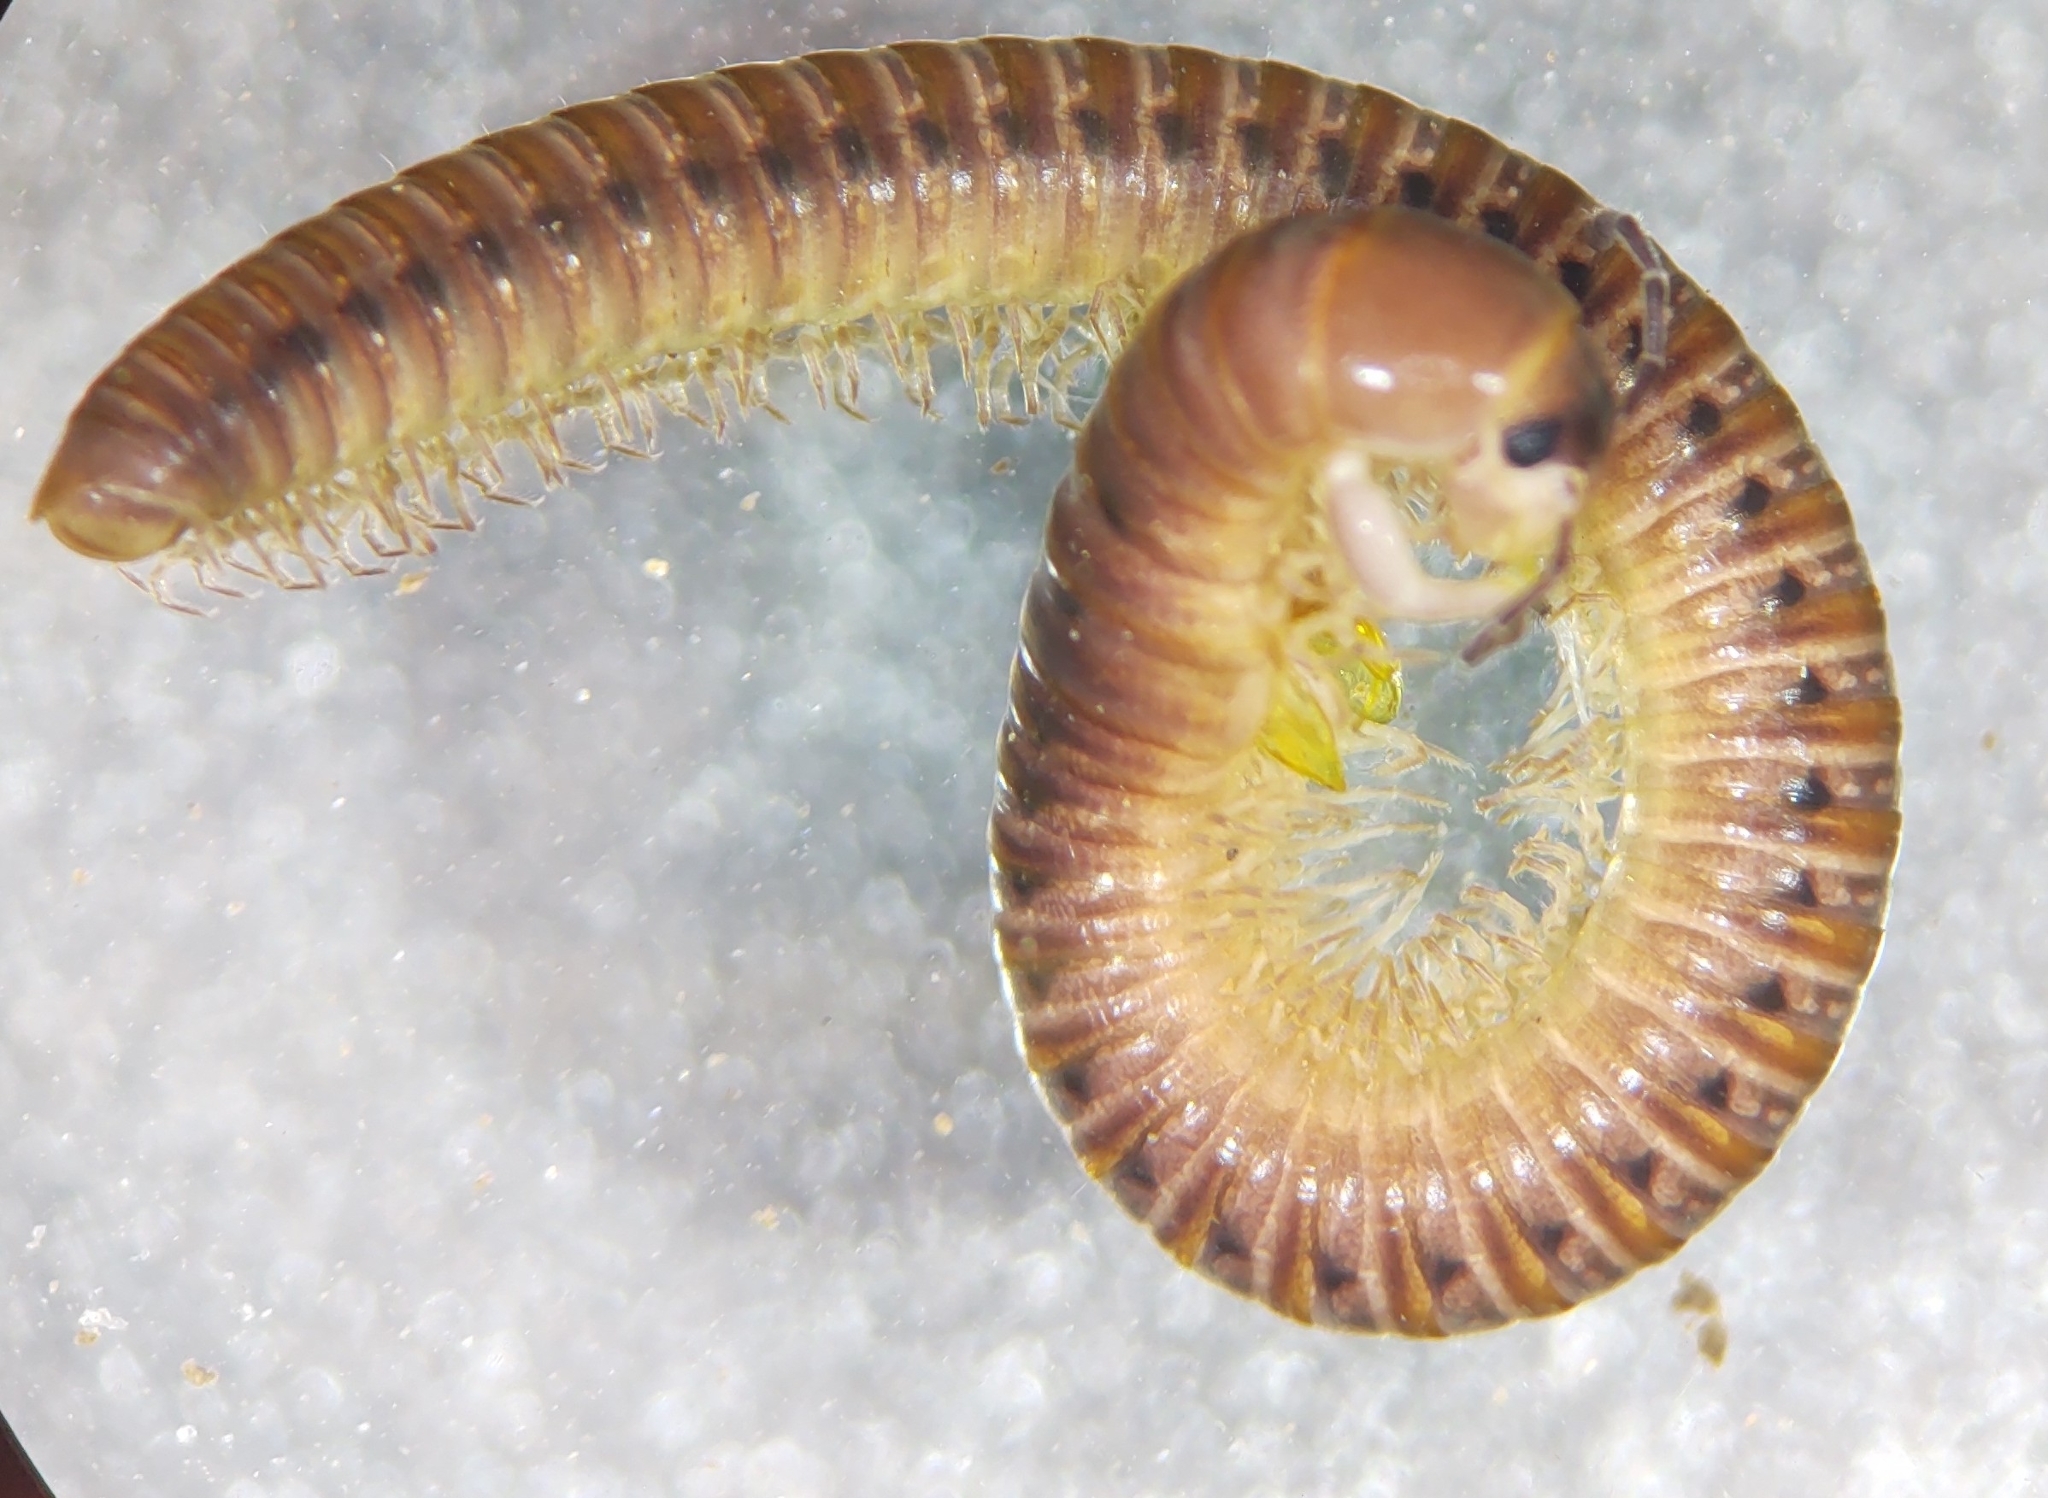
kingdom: Animalia
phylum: Arthropoda
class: Diplopoda
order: Julida
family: Parajulidae
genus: Oriulus
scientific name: Oriulus venustus
